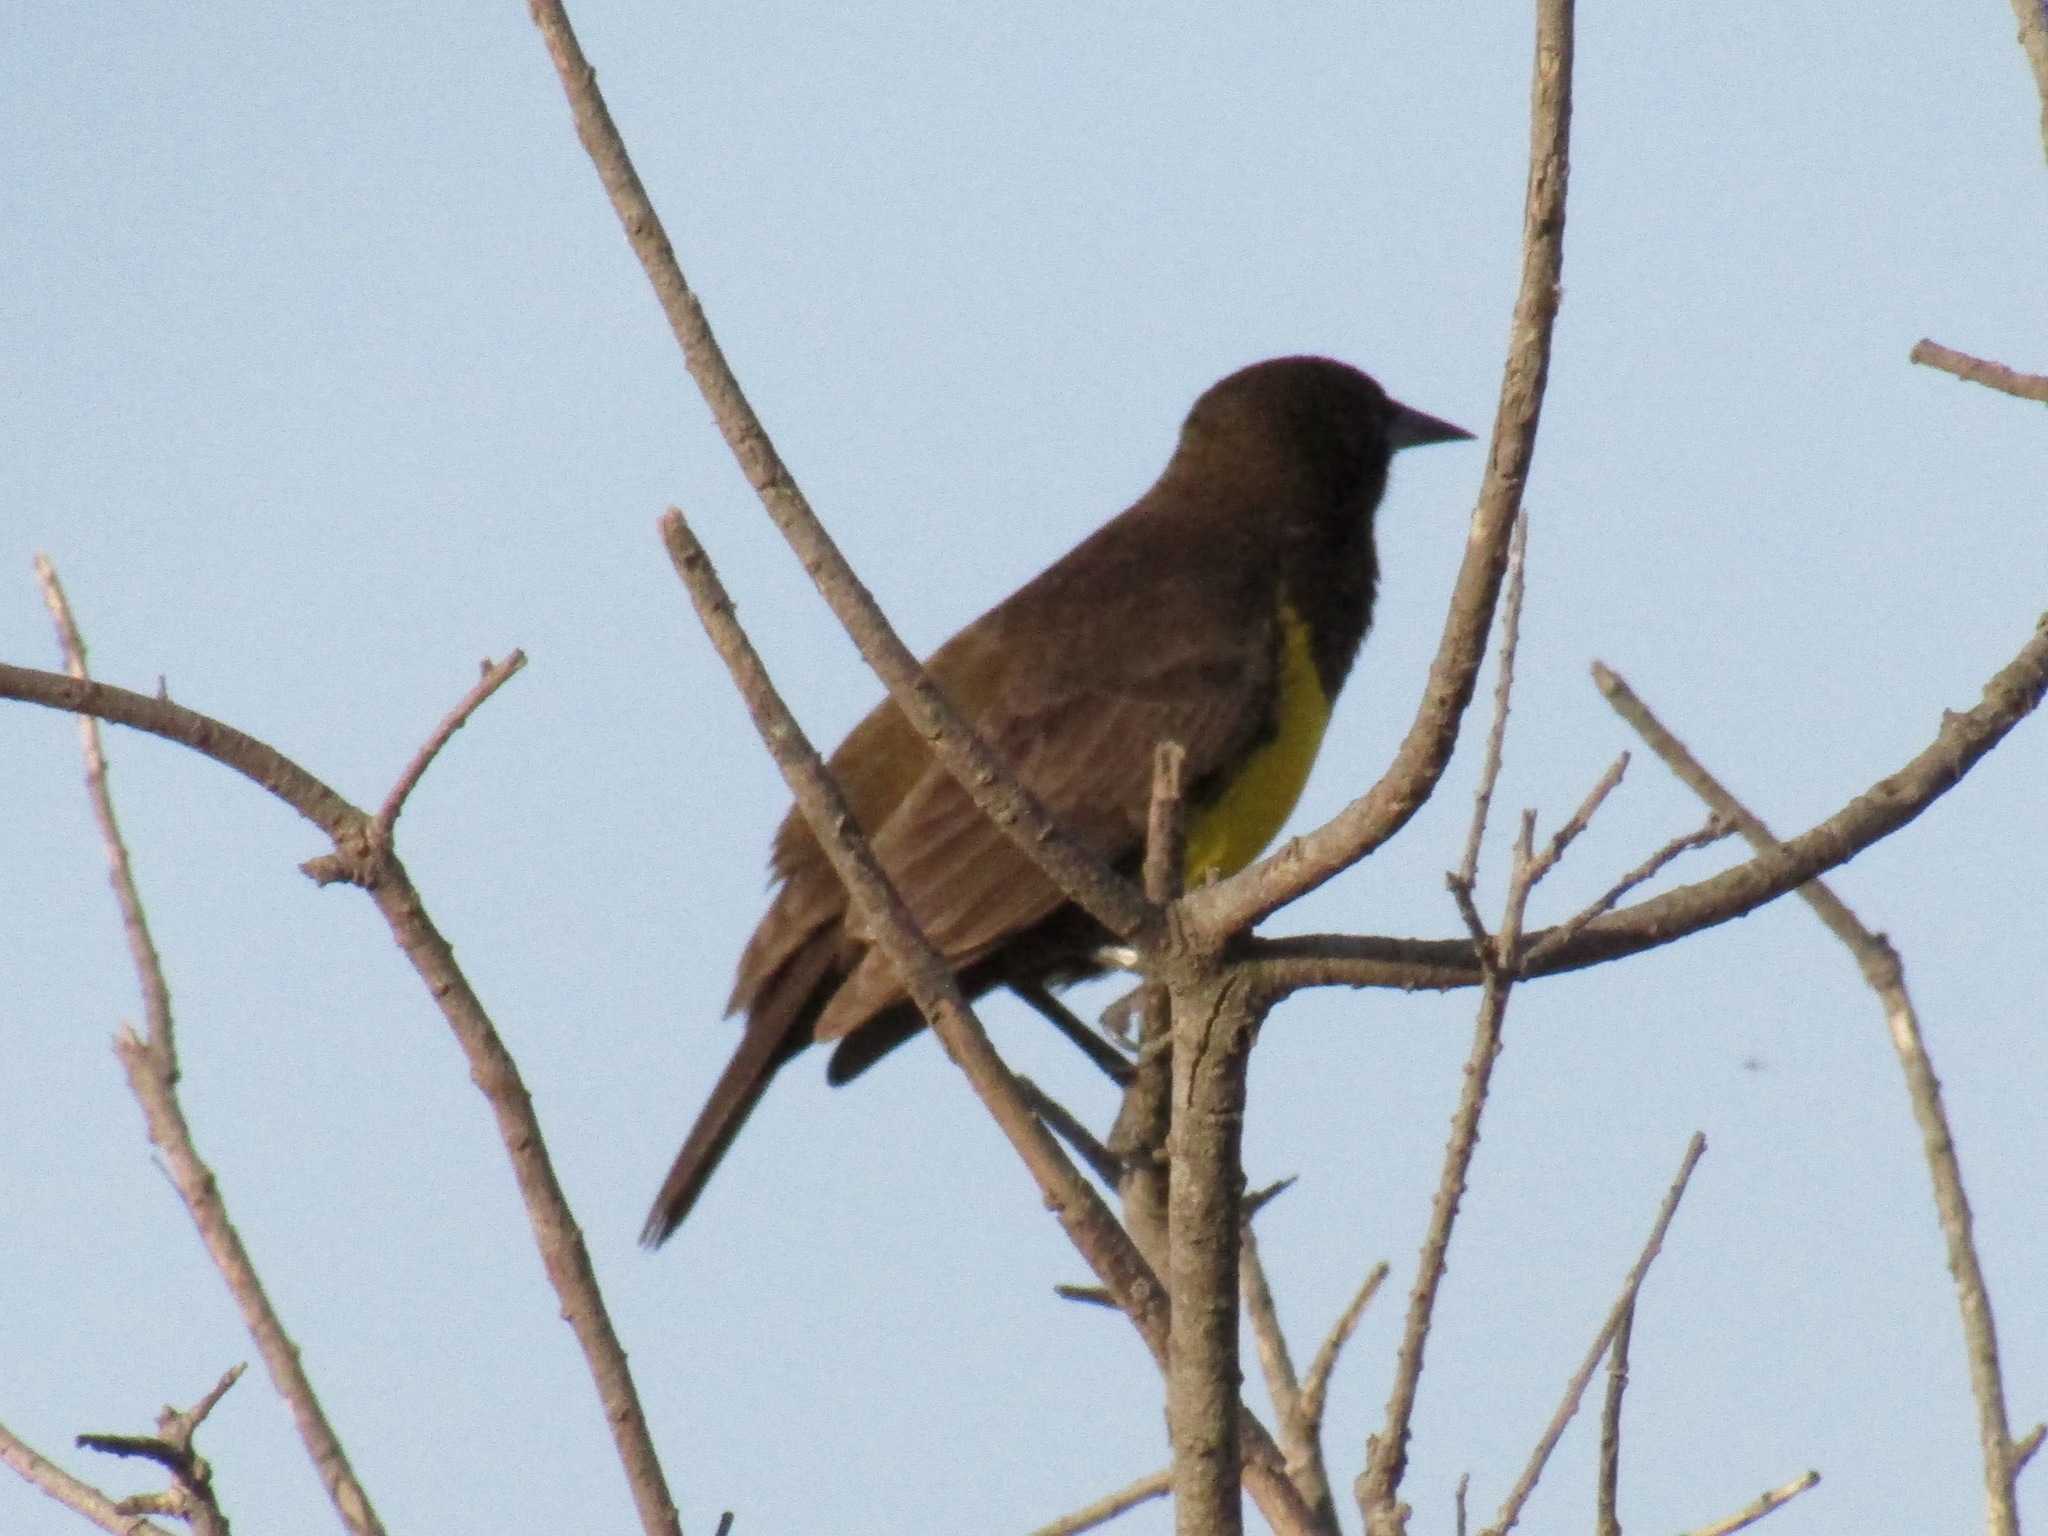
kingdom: Animalia
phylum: Chordata
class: Aves
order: Passeriformes
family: Icteridae
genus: Pseudoleistes
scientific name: Pseudoleistes virescens
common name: Brown-and-yellow marshbird
